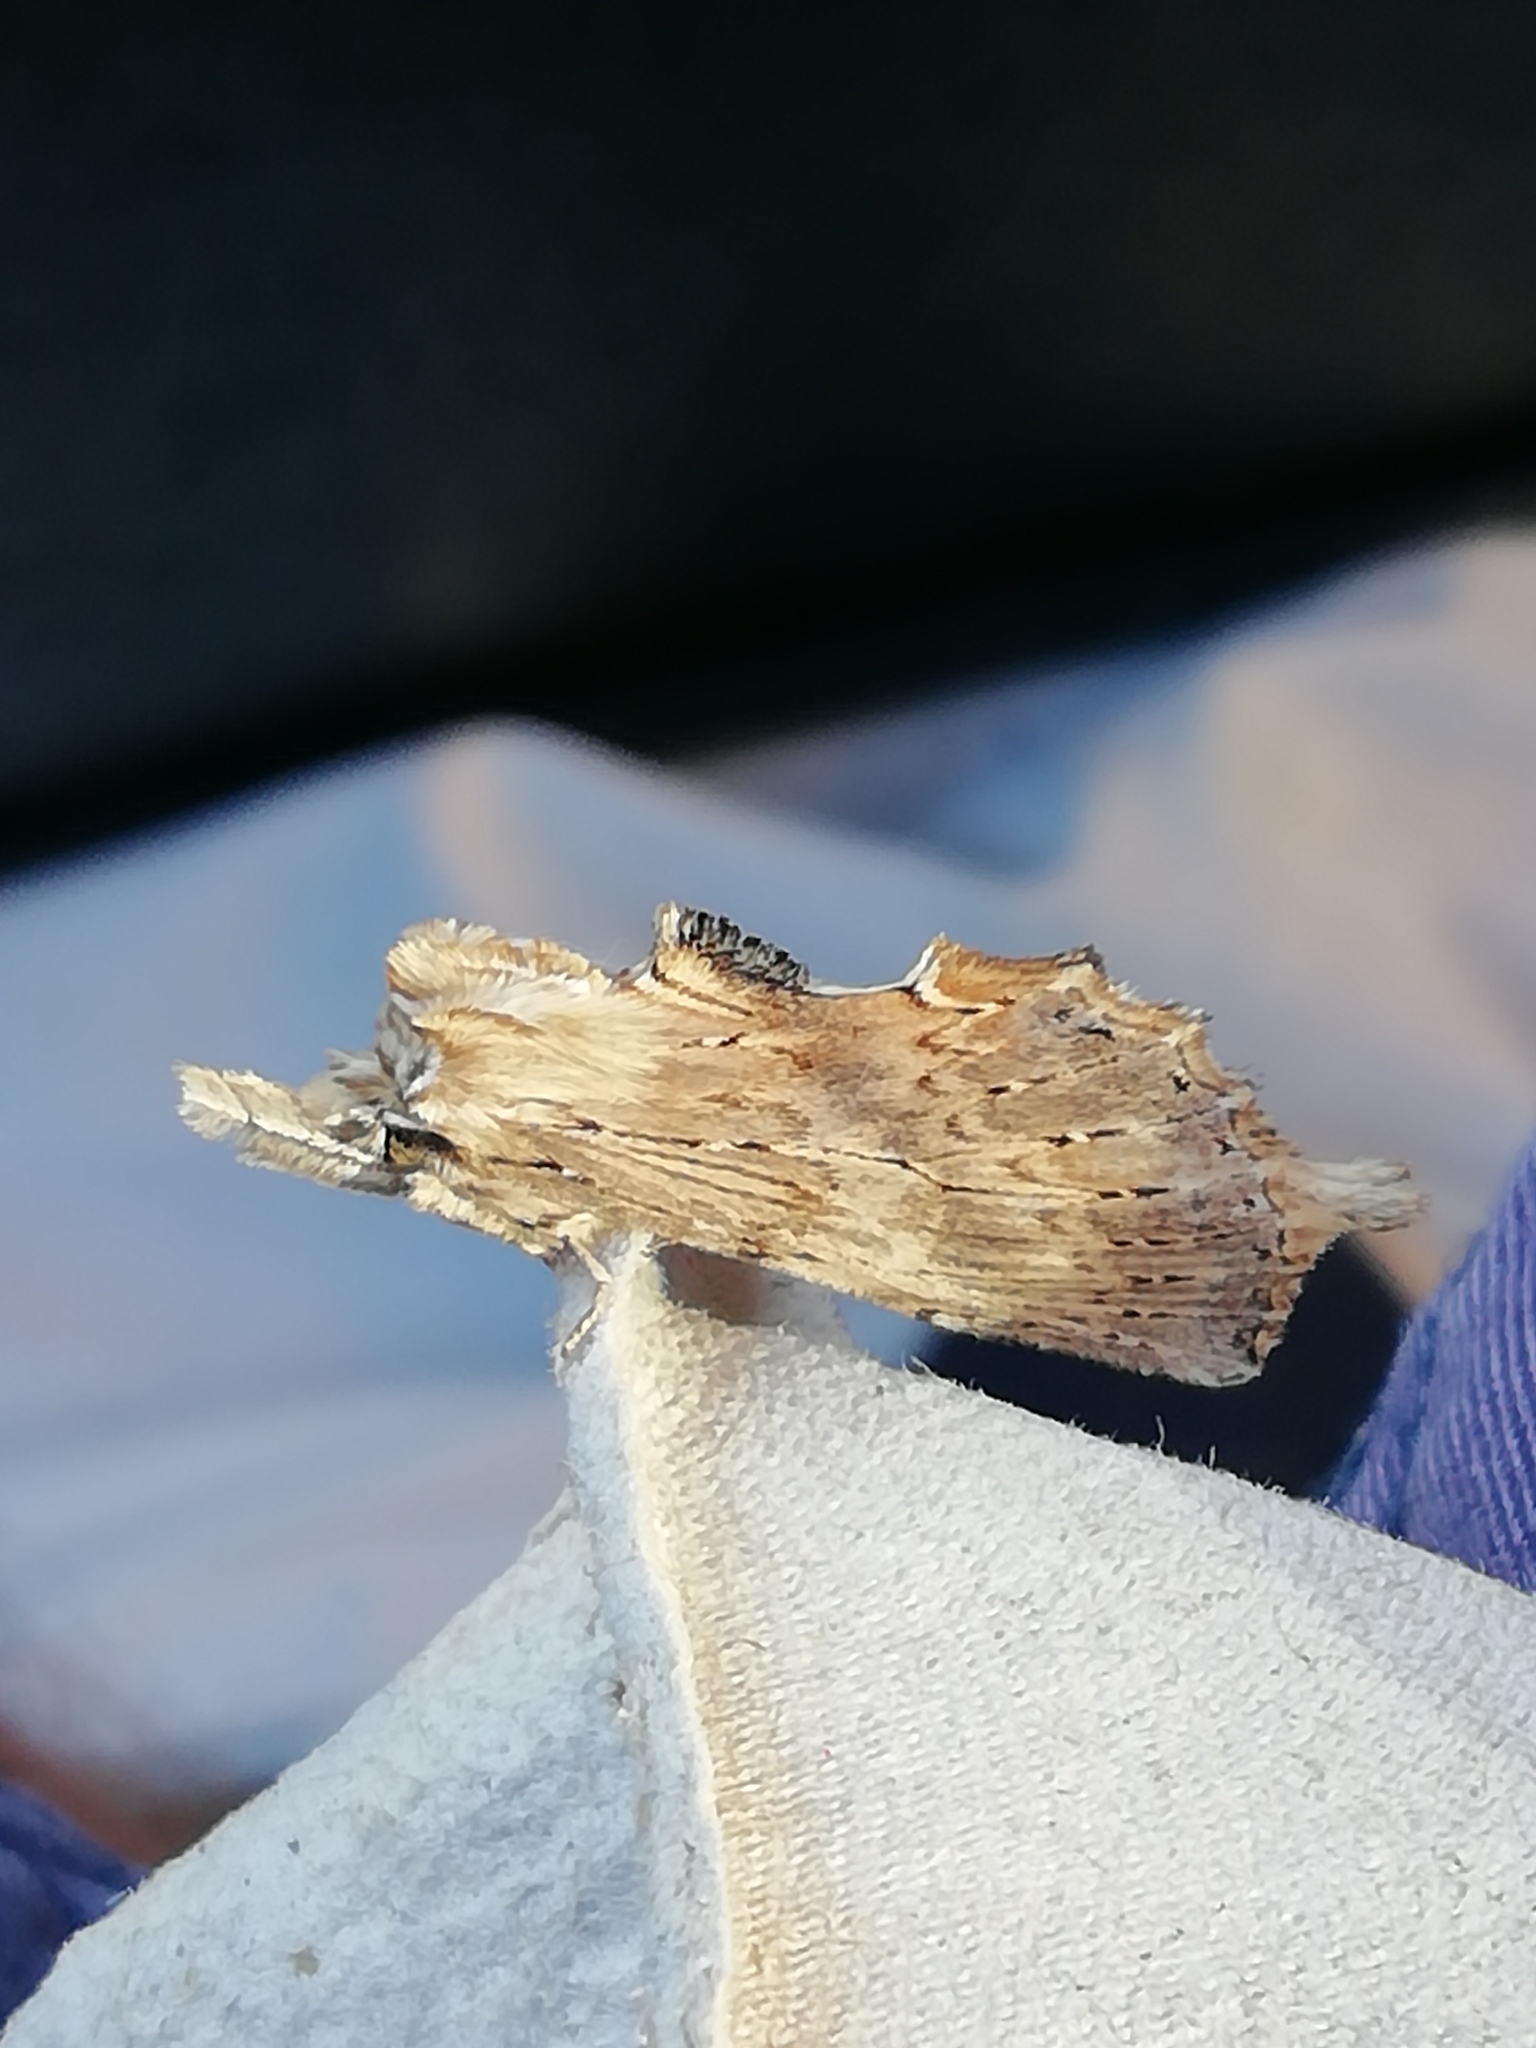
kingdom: Animalia
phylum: Arthropoda
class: Insecta
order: Lepidoptera
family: Notodontidae
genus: Pterostoma
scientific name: Pterostoma palpina
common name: Pale prominent
